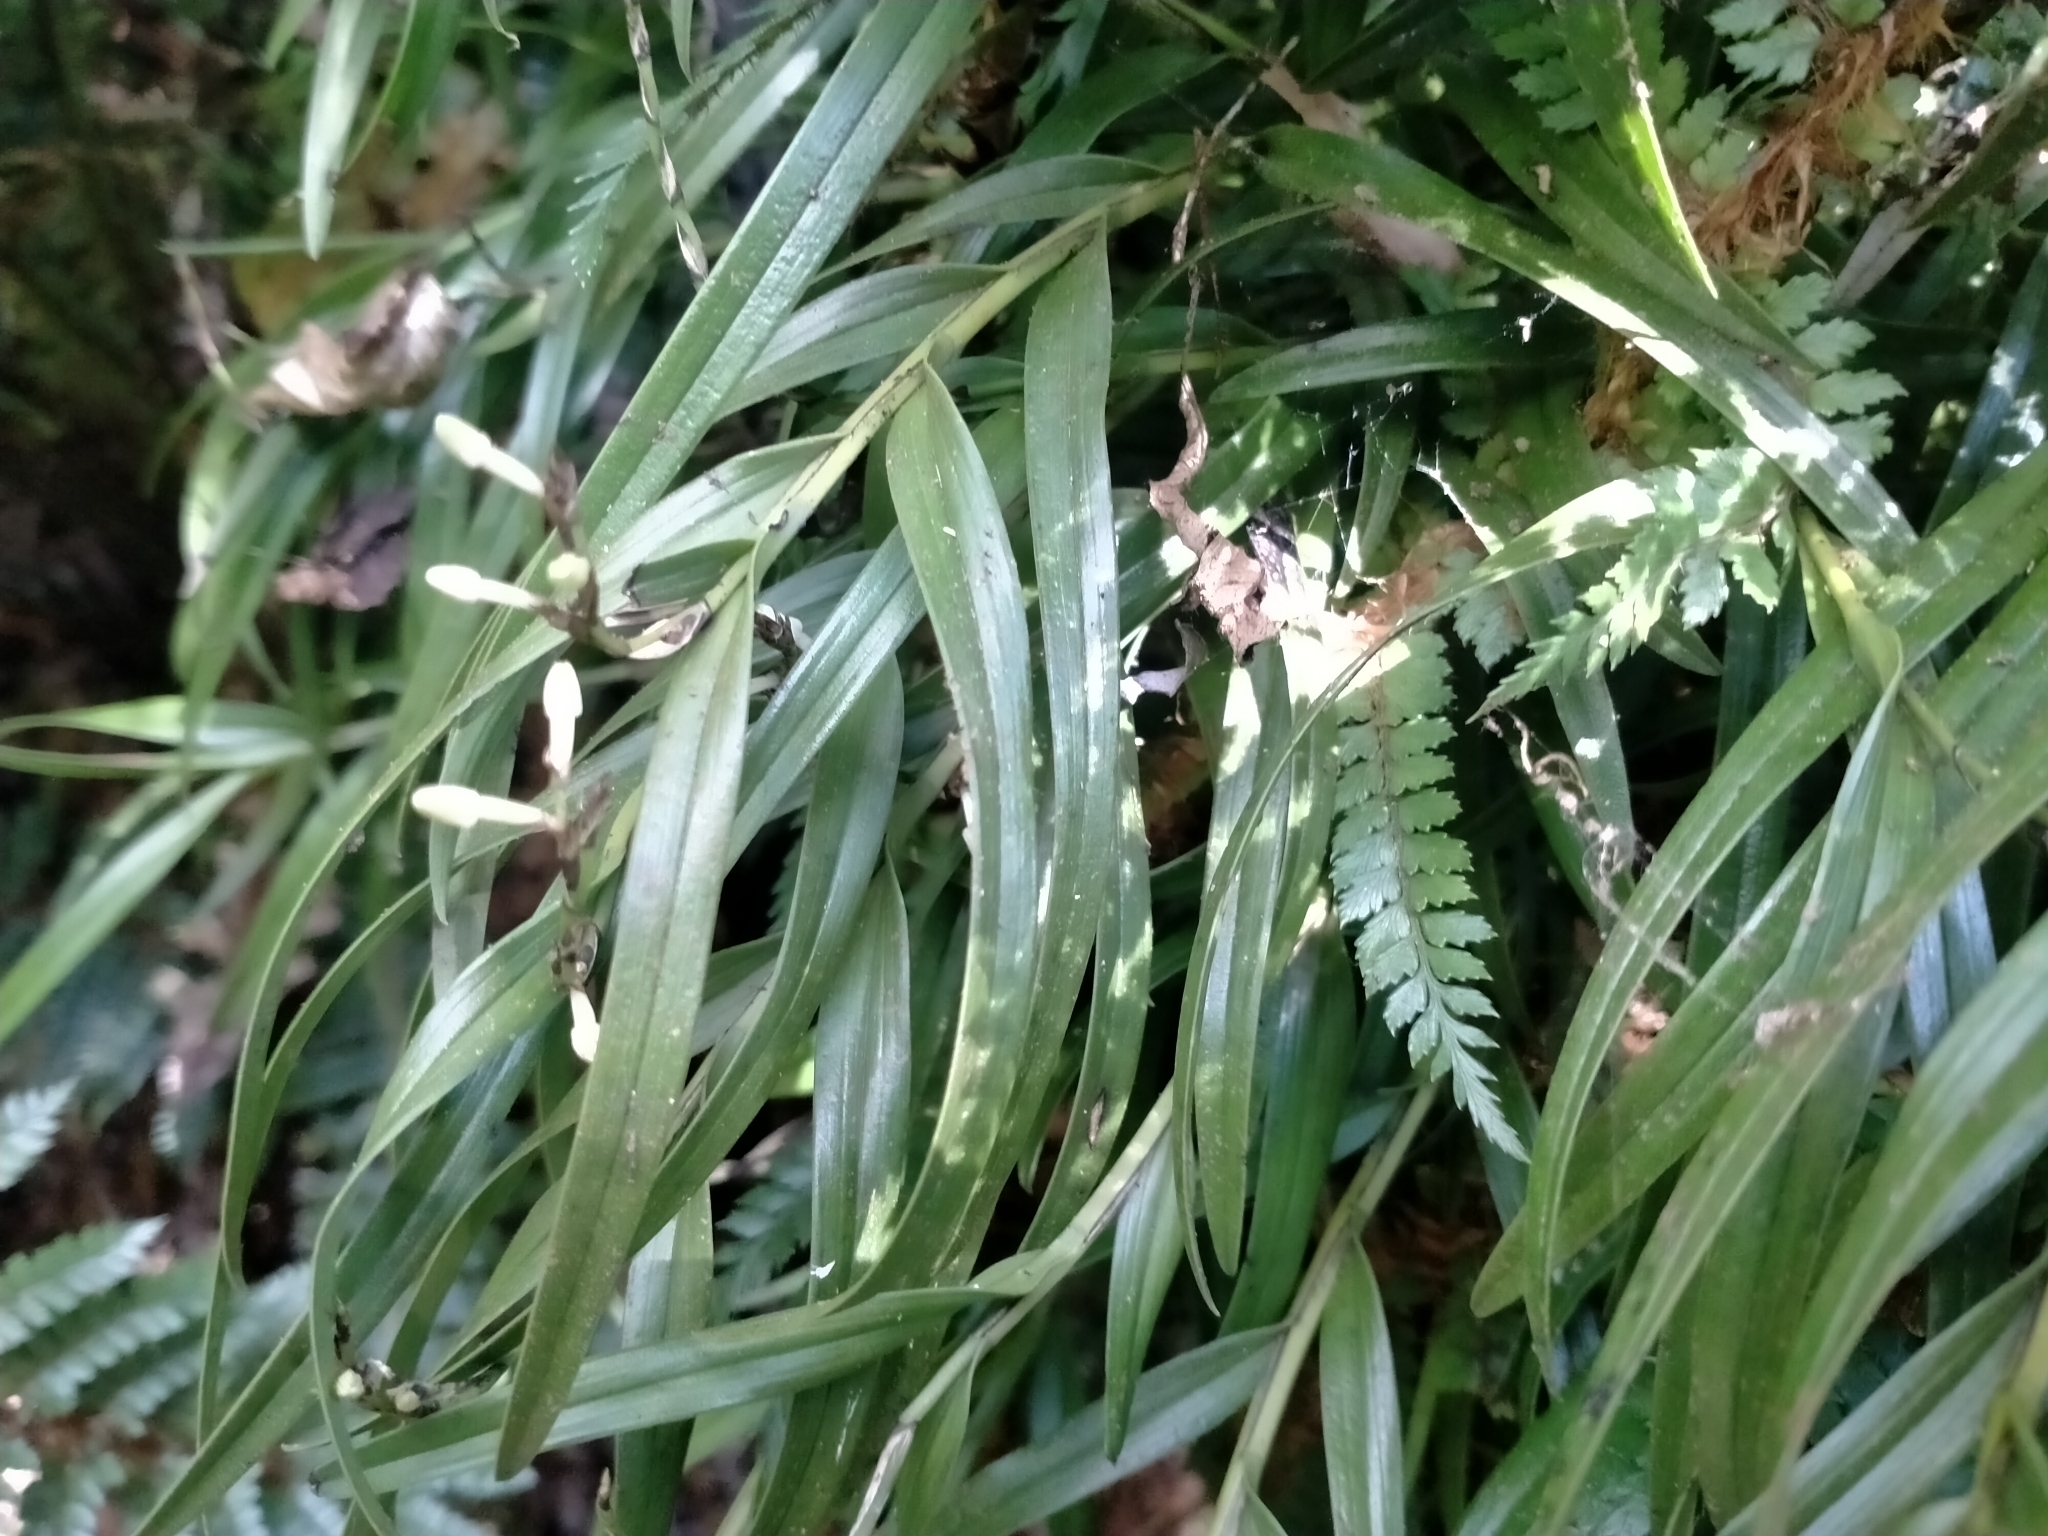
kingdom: Plantae
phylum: Tracheophyta
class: Liliopsida
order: Asparagales
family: Orchidaceae
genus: Earina
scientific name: Earina autumnalis
